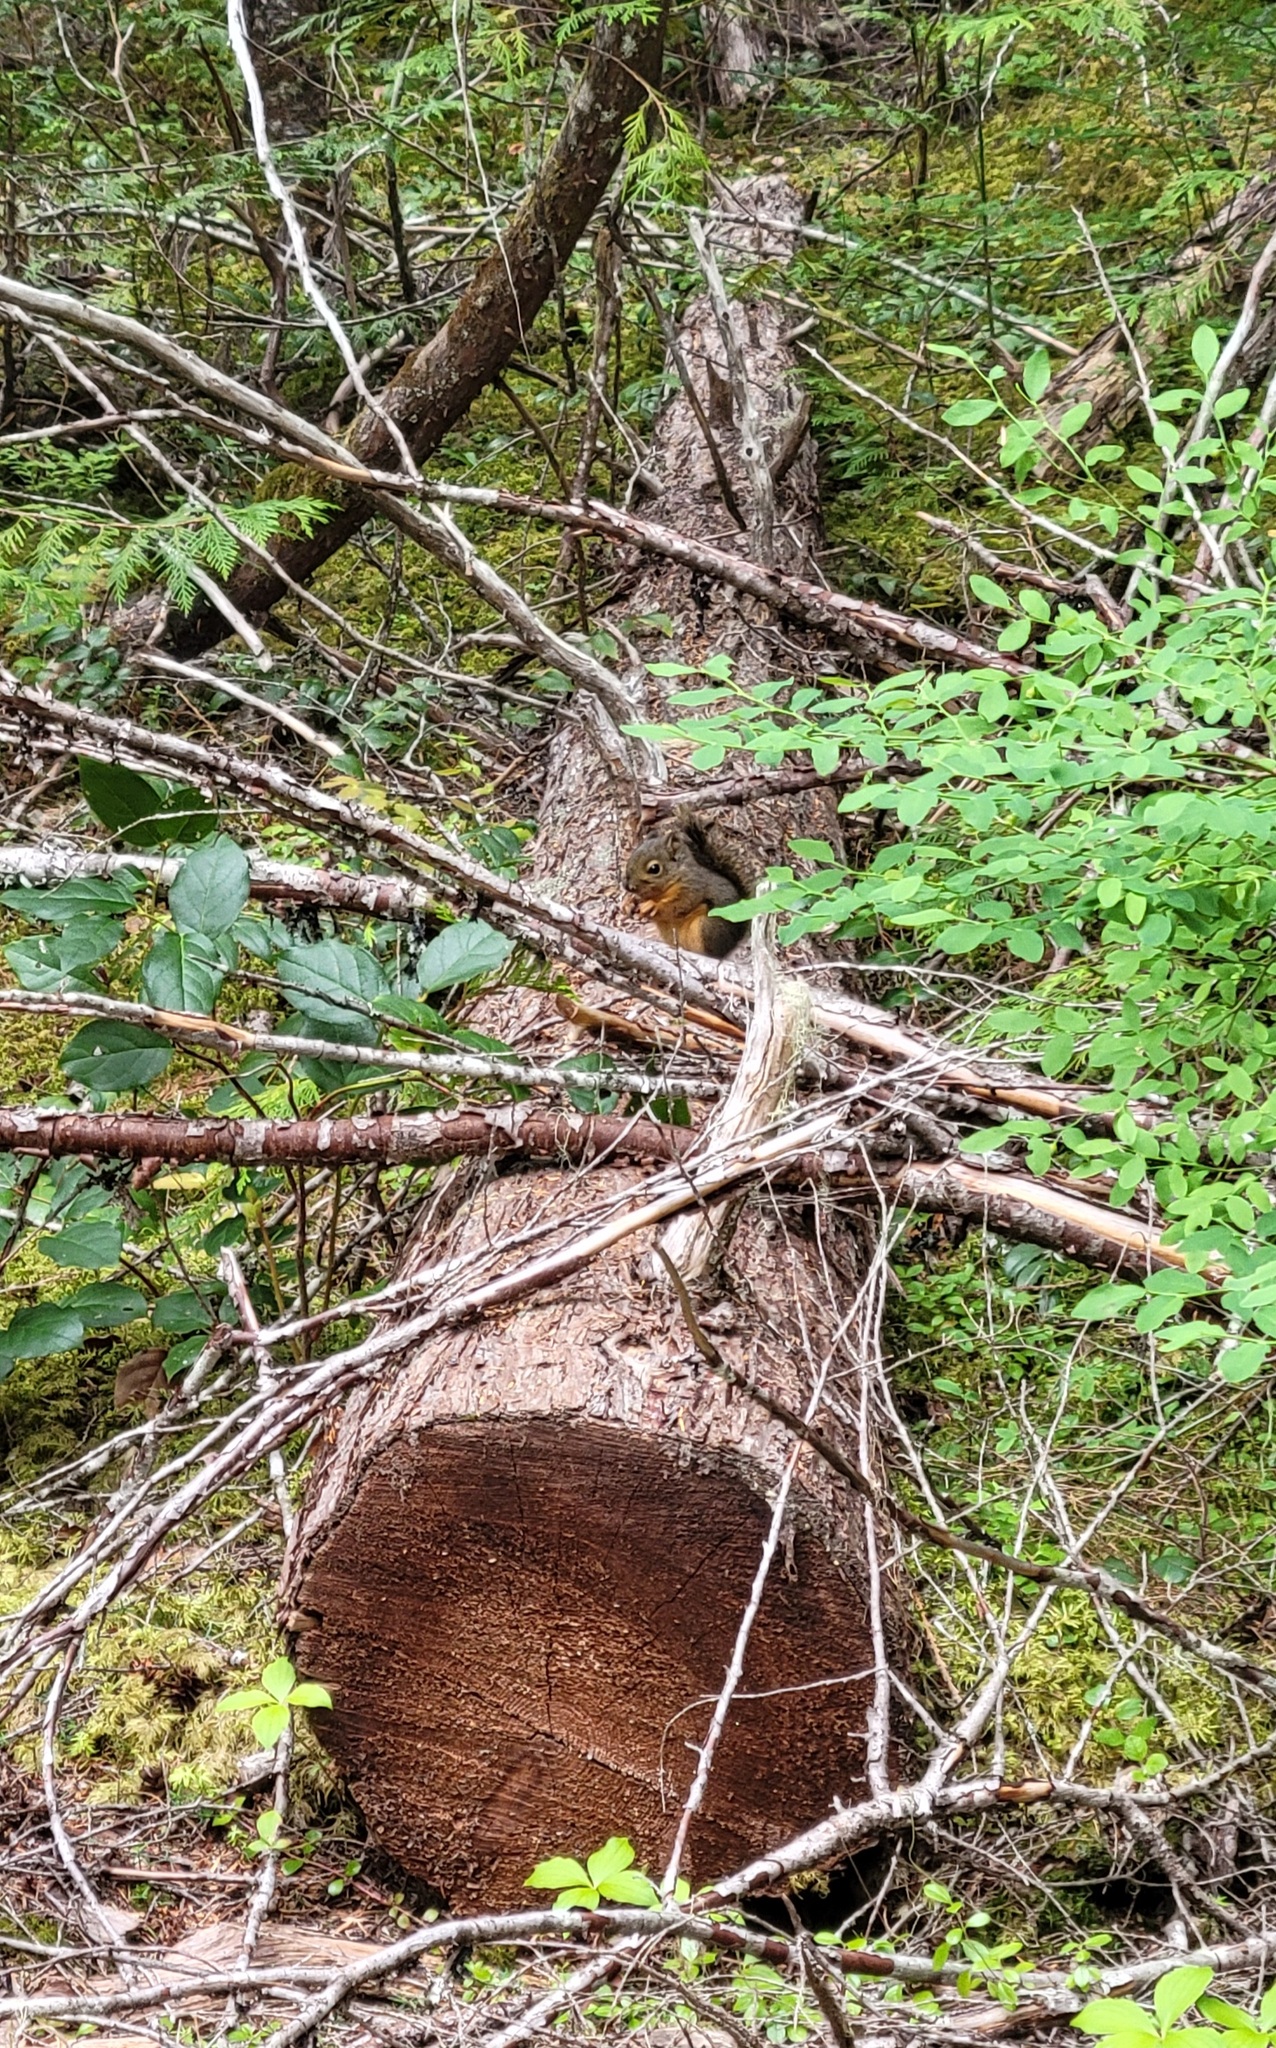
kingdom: Animalia
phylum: Chordata
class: Mammalia
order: Rodentia
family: Sciuridae
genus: Tamiasciurus
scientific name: Tamiasciurus douglasii
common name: Douglas's squirrel
